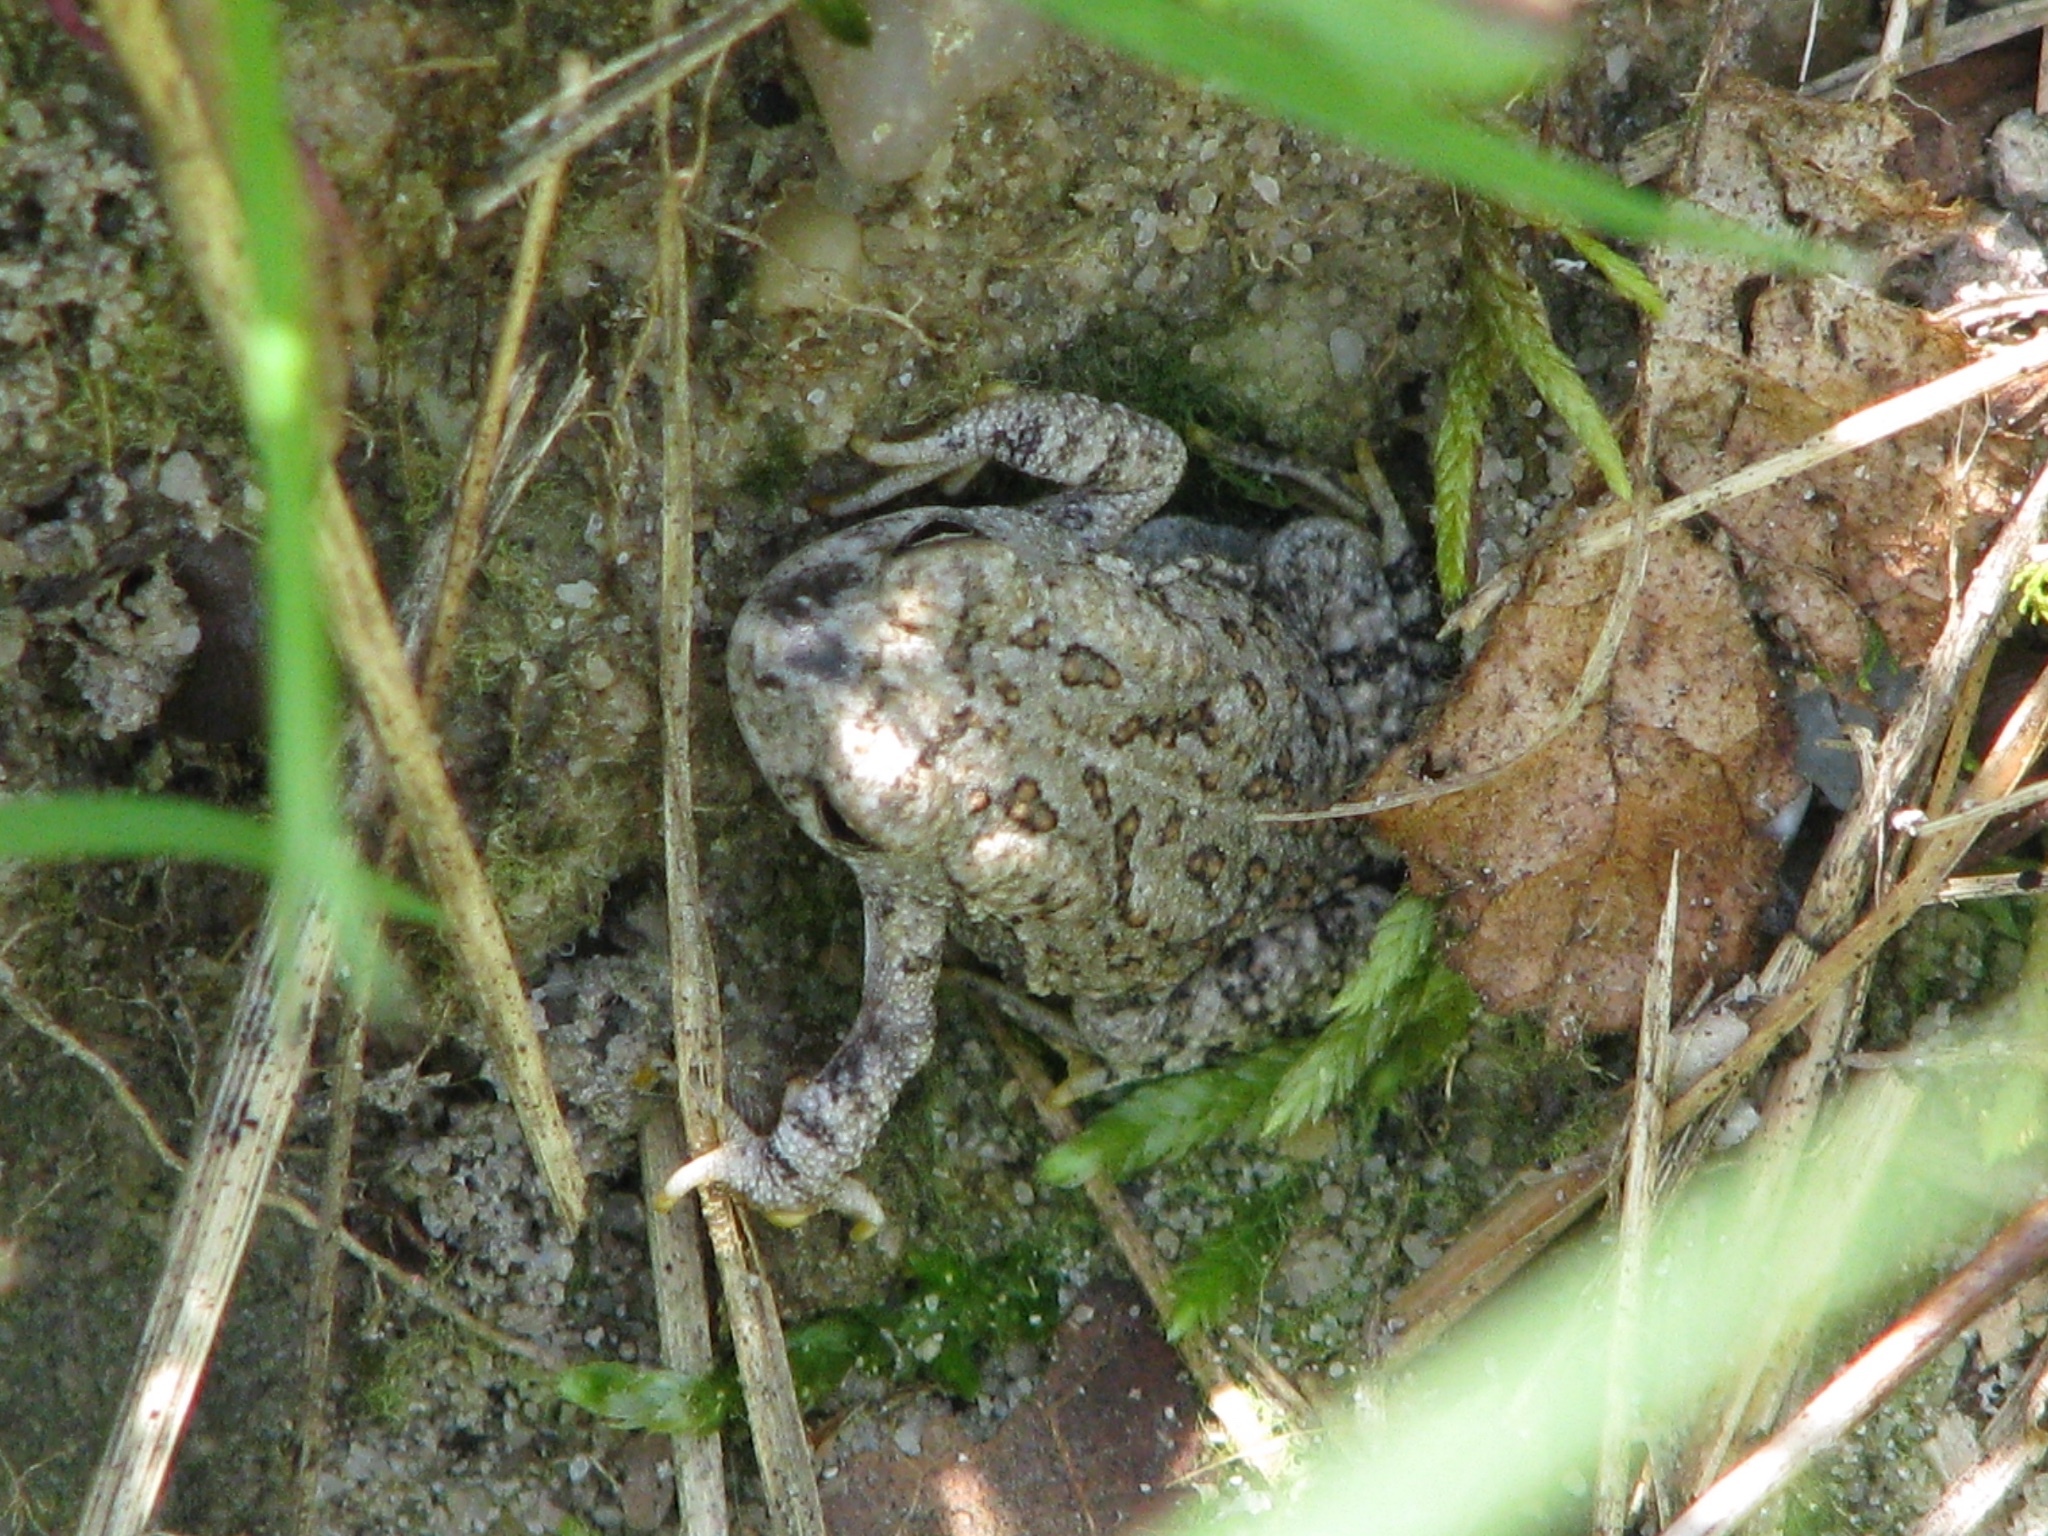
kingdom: Animalia
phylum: Chordata
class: Amphibia
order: Anura
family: Bufonidae
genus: Anaxyrus
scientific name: Anaxyrus fowleri
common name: Fowler's toad
